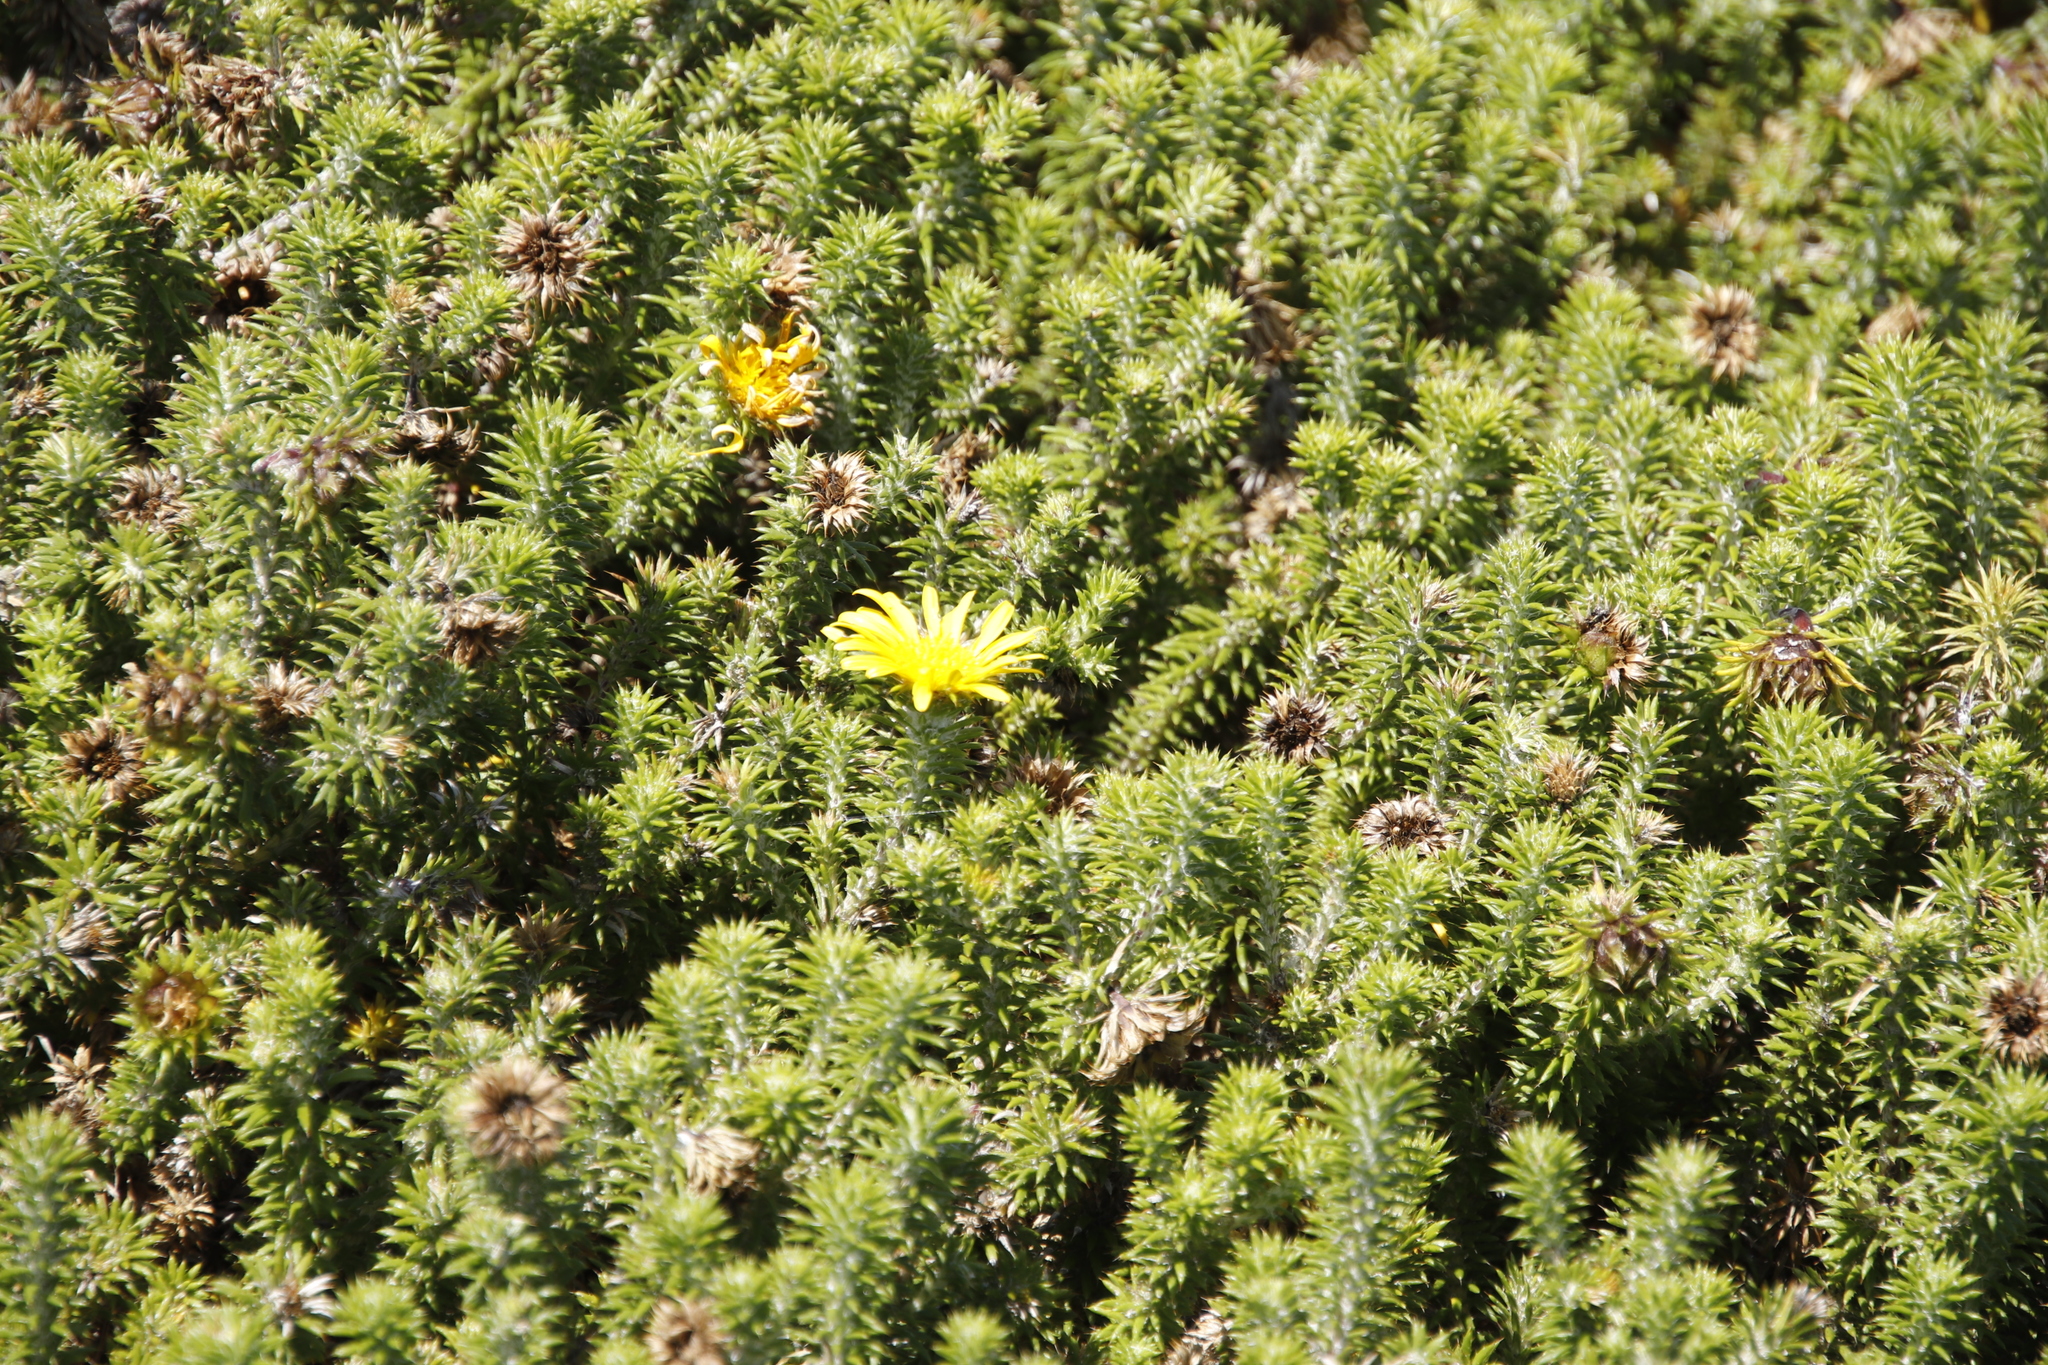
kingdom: Plantae
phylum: Tracheophyta
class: Magnoliopsida
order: Asterales
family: Asteraceae
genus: Cullumia
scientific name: Cullumia squarrosa
